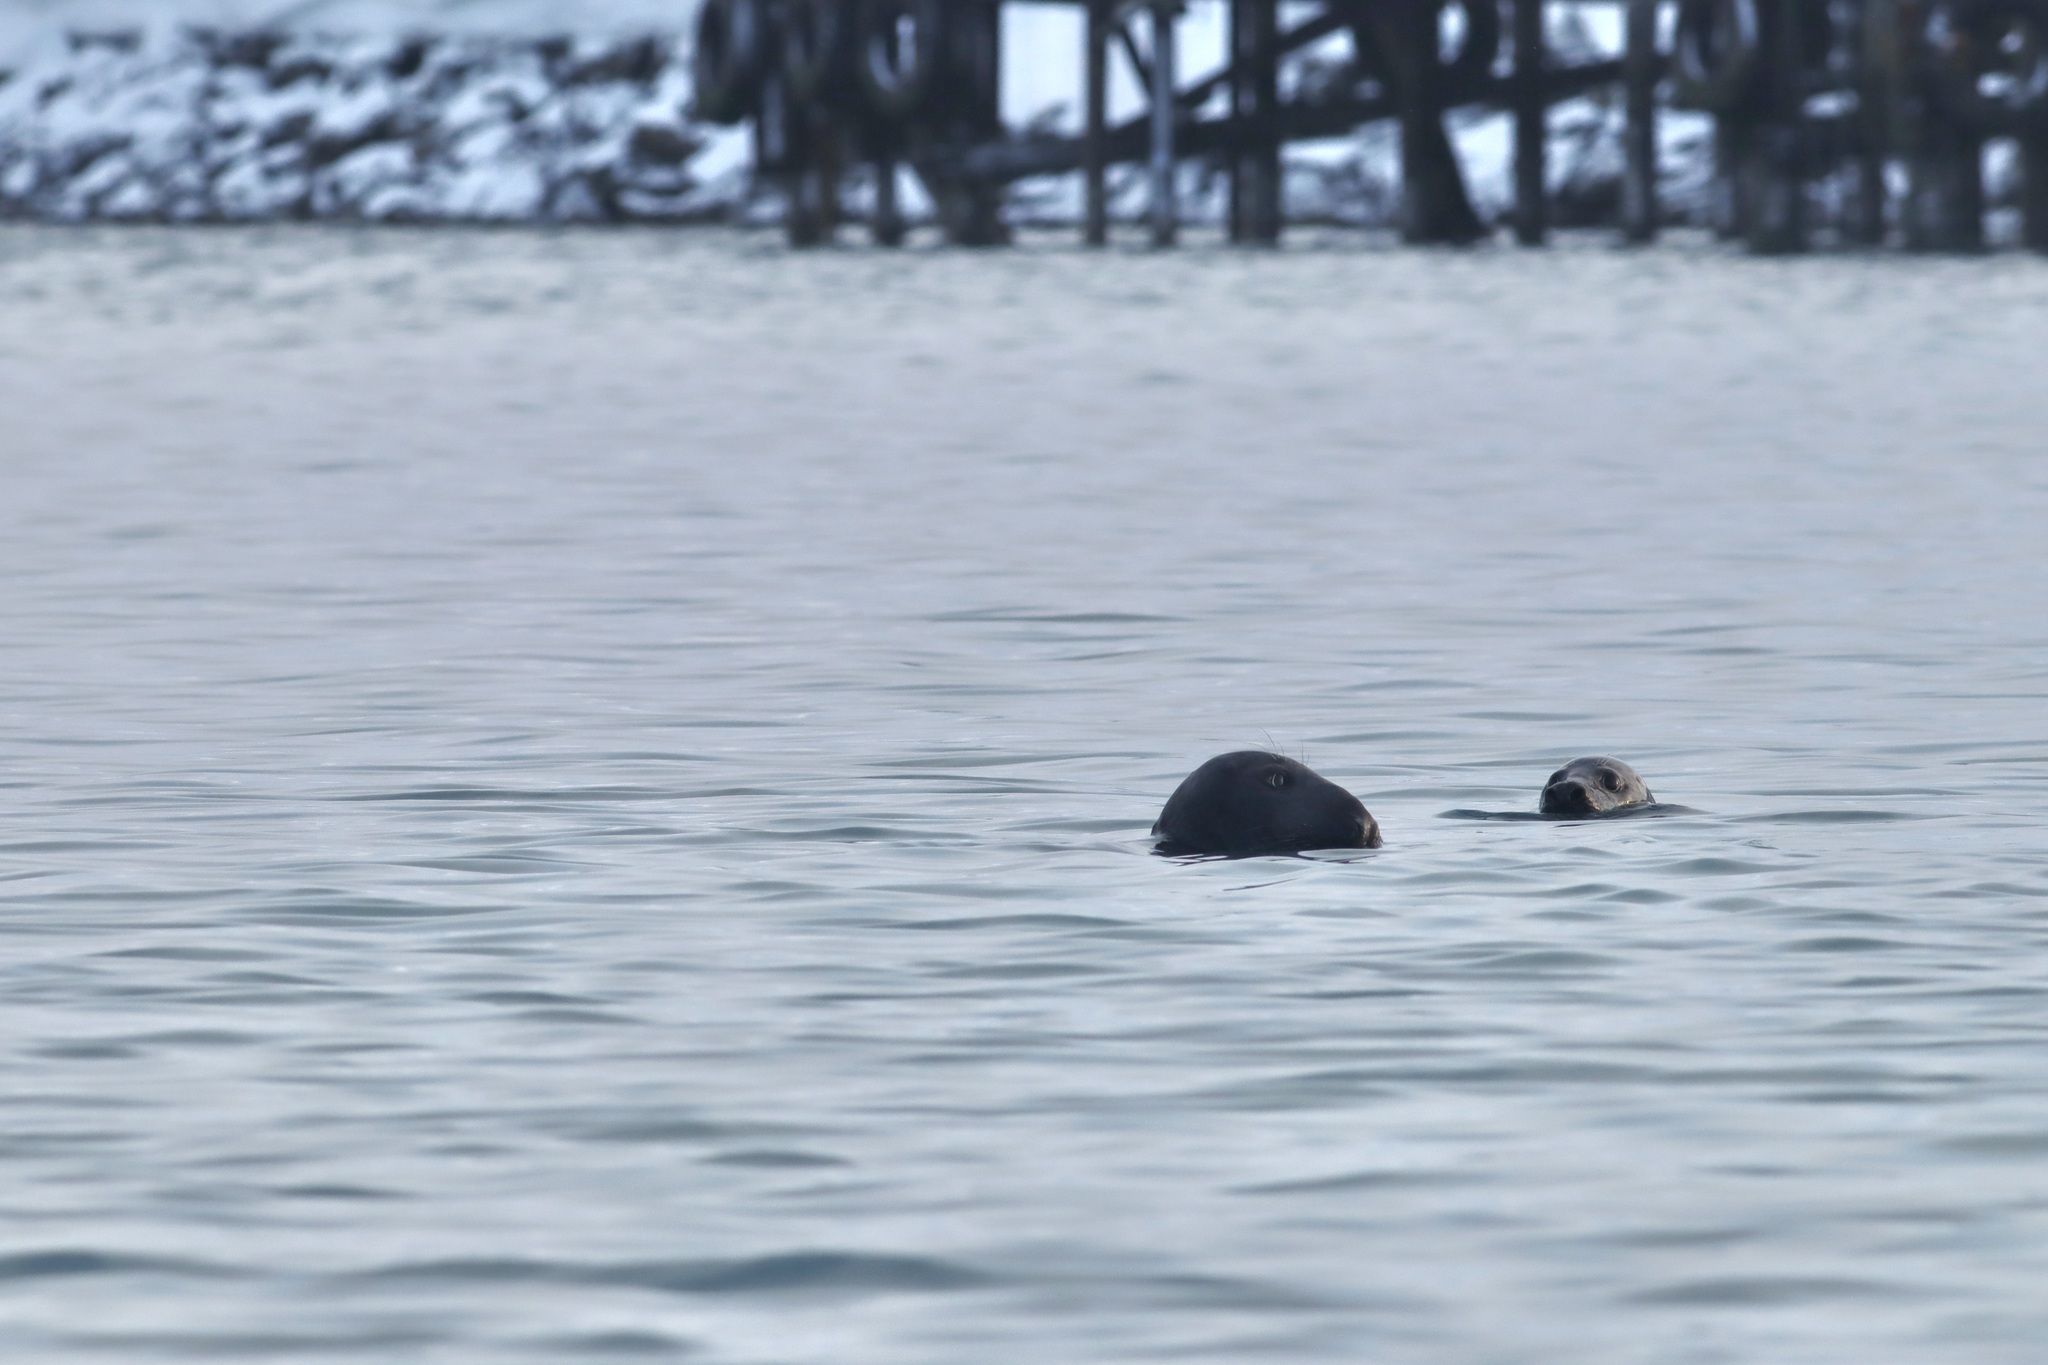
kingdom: Animalia
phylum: Chordata
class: Mammalia
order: Carnivora
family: Phocidae
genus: Halichoerus
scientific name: Halichoerus grypus
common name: Grey seal
